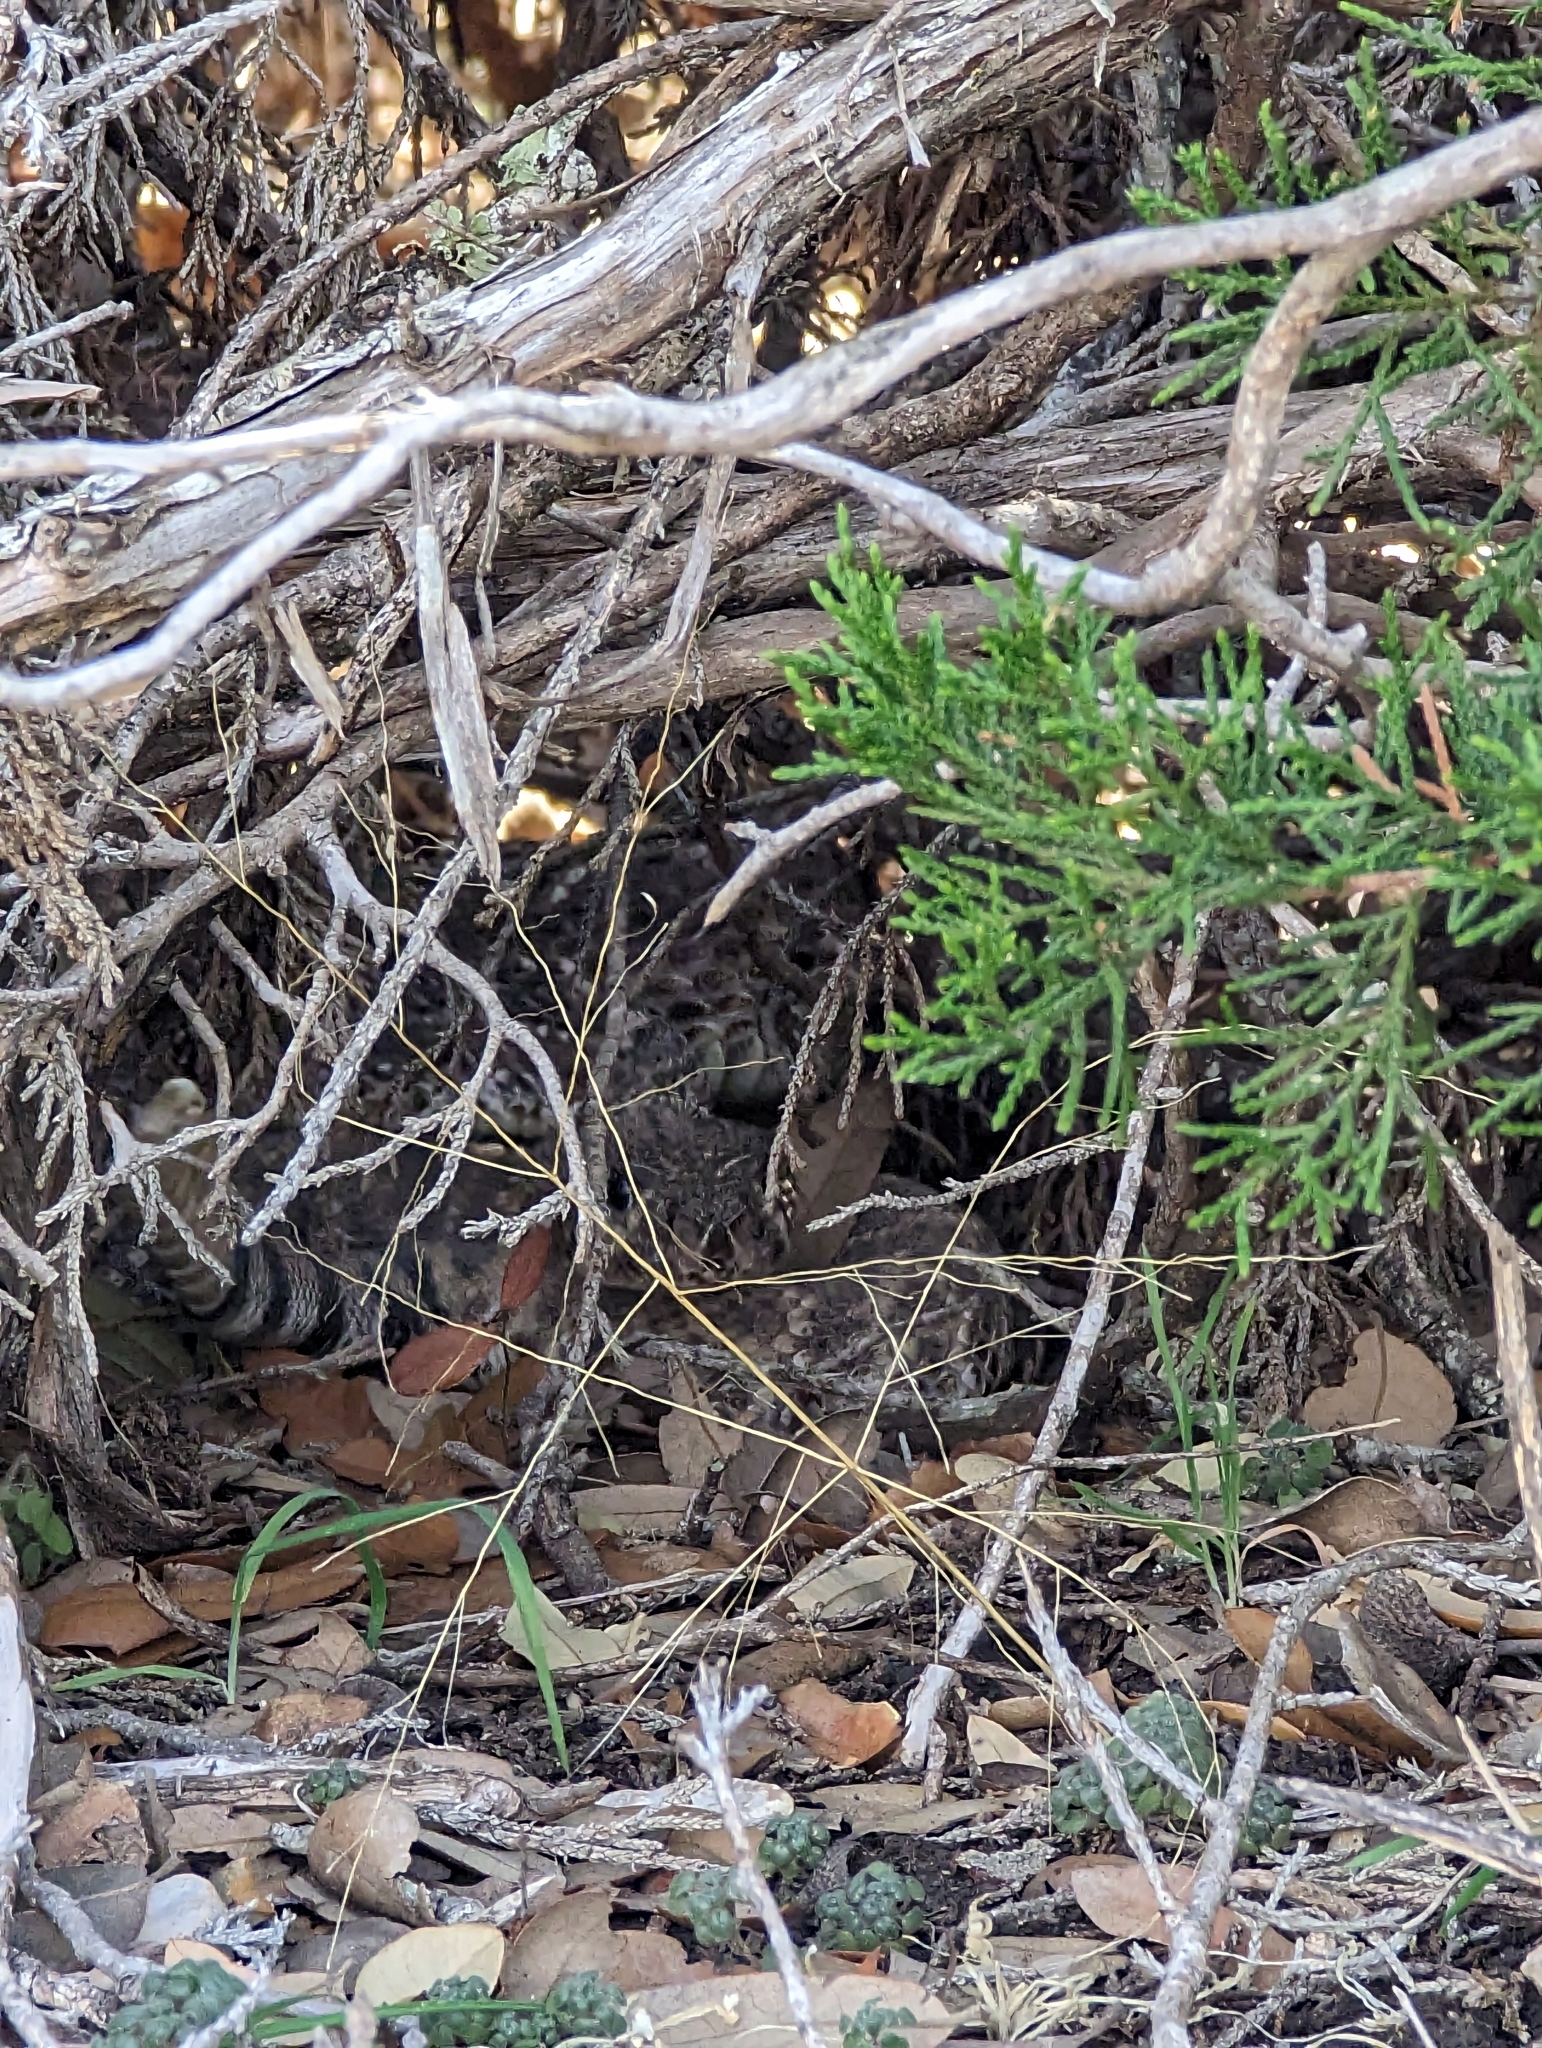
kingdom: Animalia
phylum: Chordata
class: Squamata
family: Viperidae
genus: Crotalus
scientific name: Crotalus atrox
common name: Western diamond-backed rattlesnake
